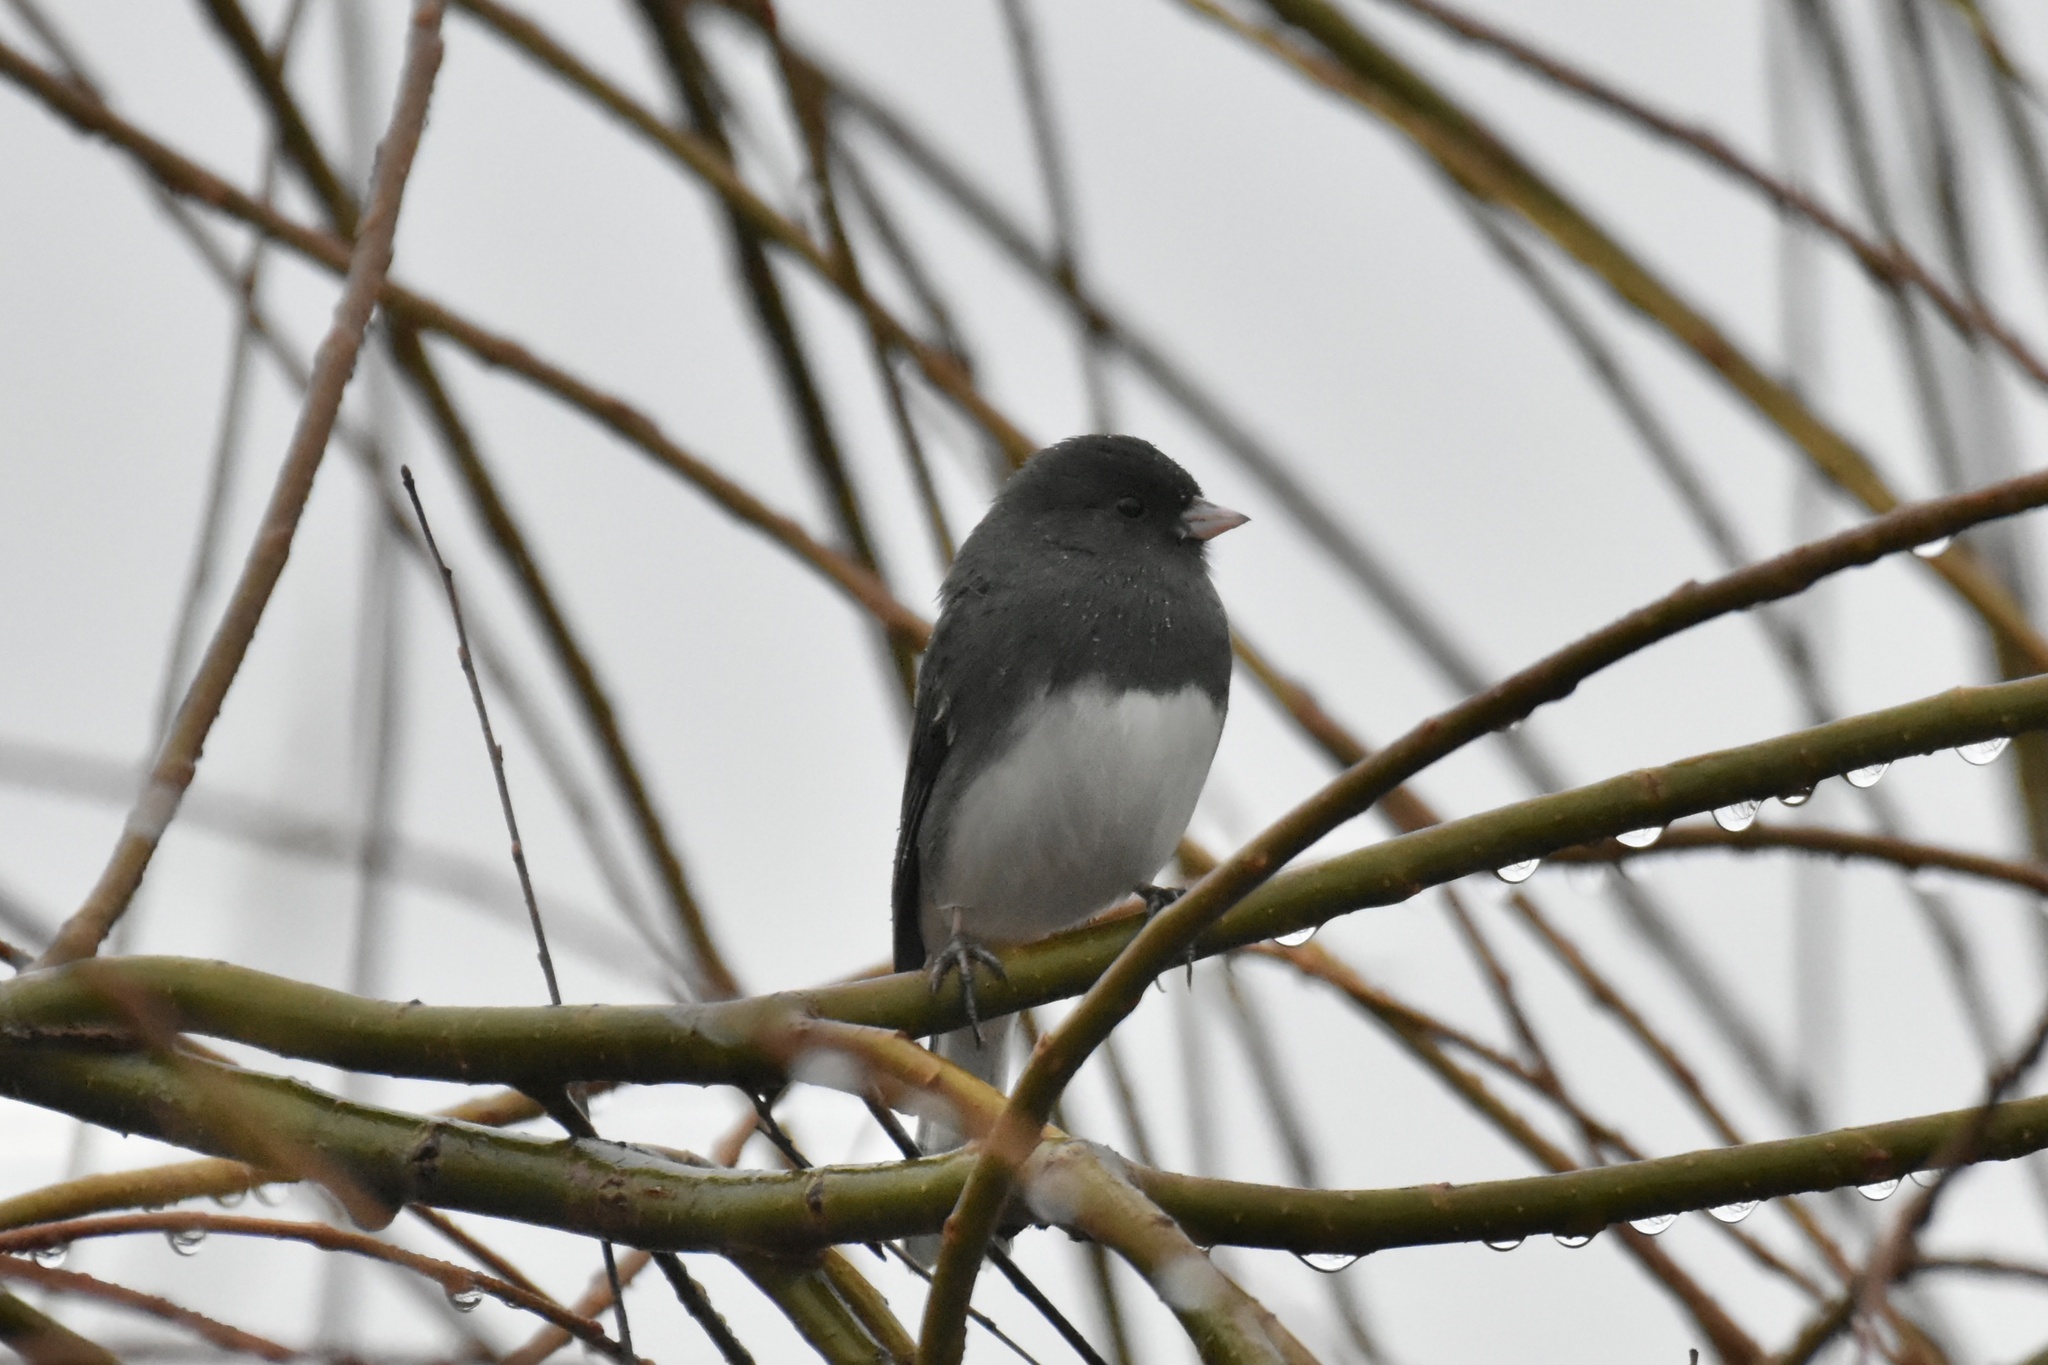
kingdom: Animalia
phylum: Chordata
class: Aves
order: Passeriformes
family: Passerellidae
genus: Junco
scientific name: Junco hyemalis
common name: Dark-eyed junco
